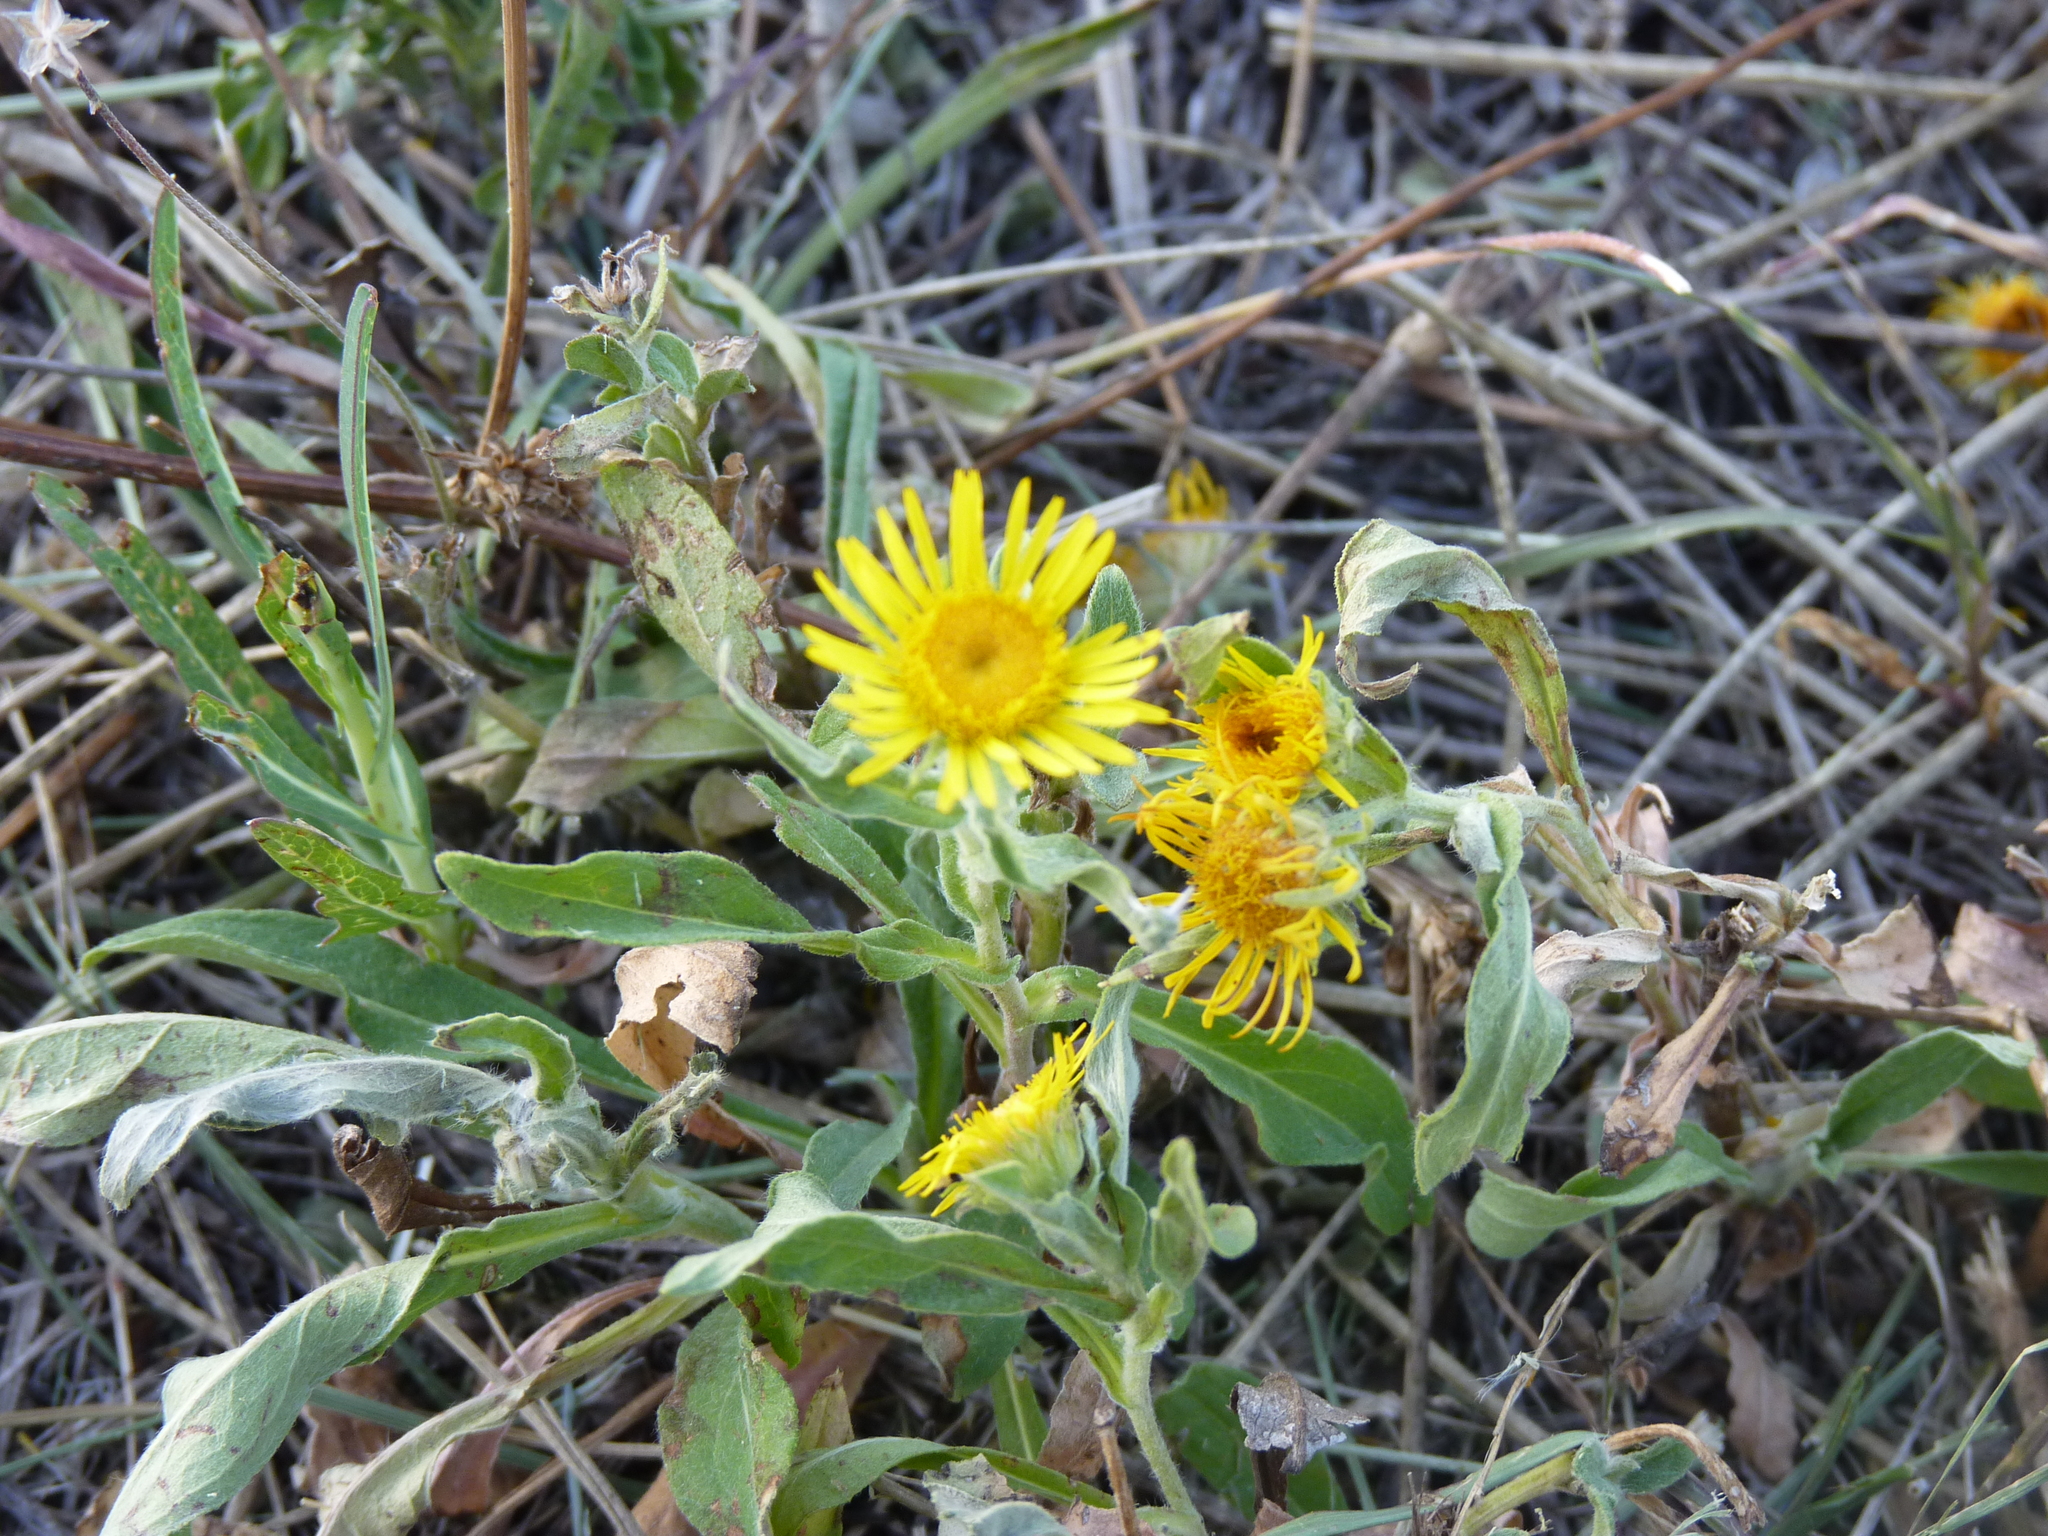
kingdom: Plantae
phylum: Tracheophyta
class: Magnoliopsida
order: Asterales
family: Asteraceae
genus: Pentanema
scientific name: Pentanema britannicum
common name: British elecampane
